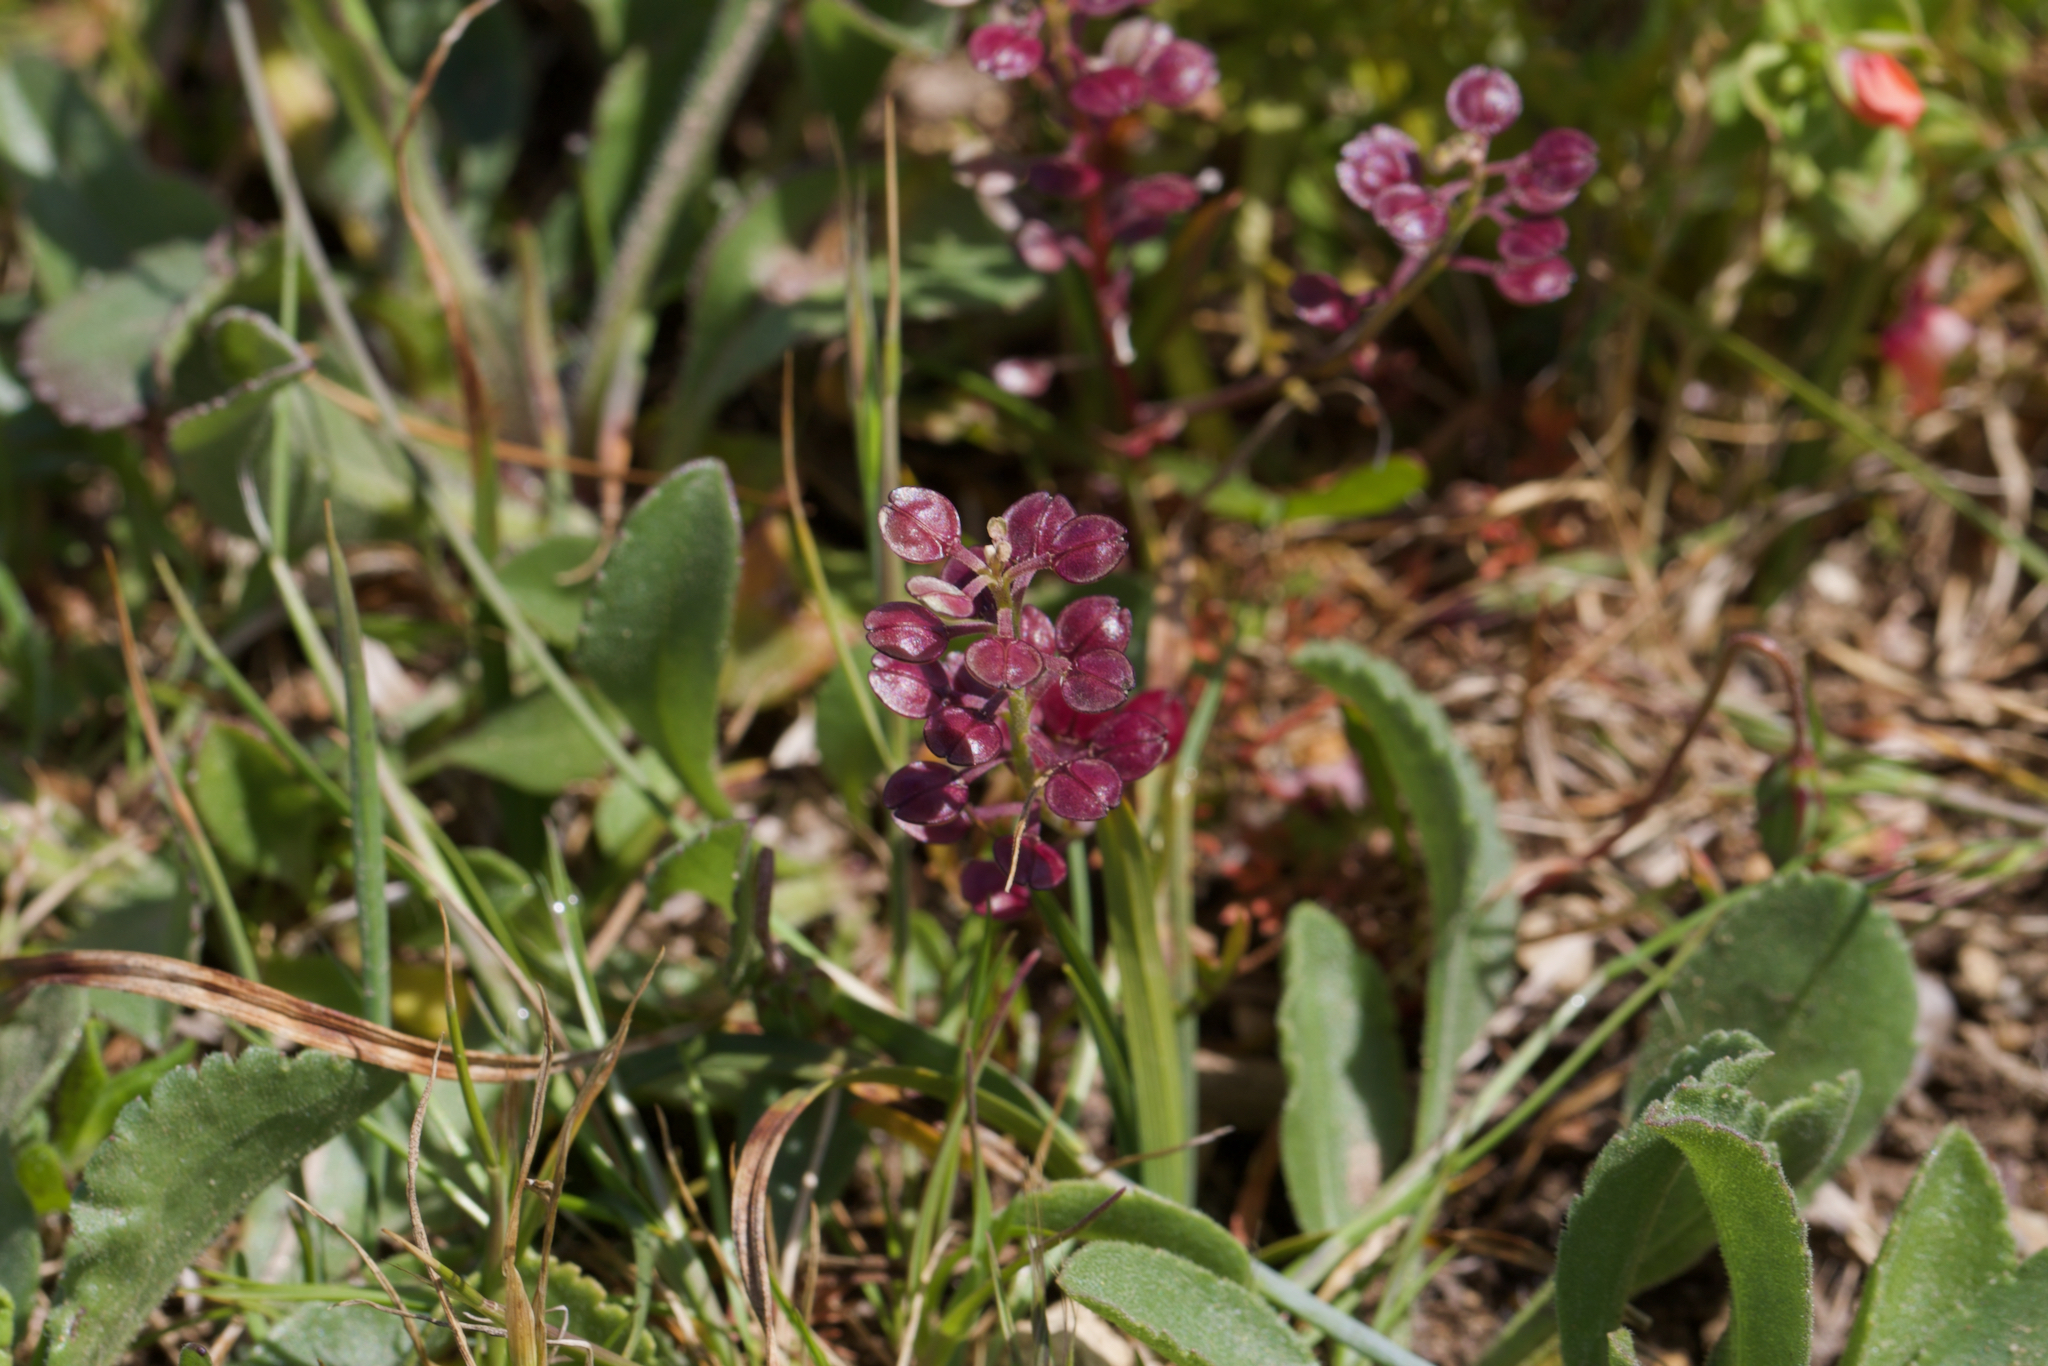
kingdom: Plantae
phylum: Tracheophyta
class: Magnoliopsida
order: Brassicales
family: Brassicaceae
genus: Lepidium
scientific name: Lepidium nitidum
